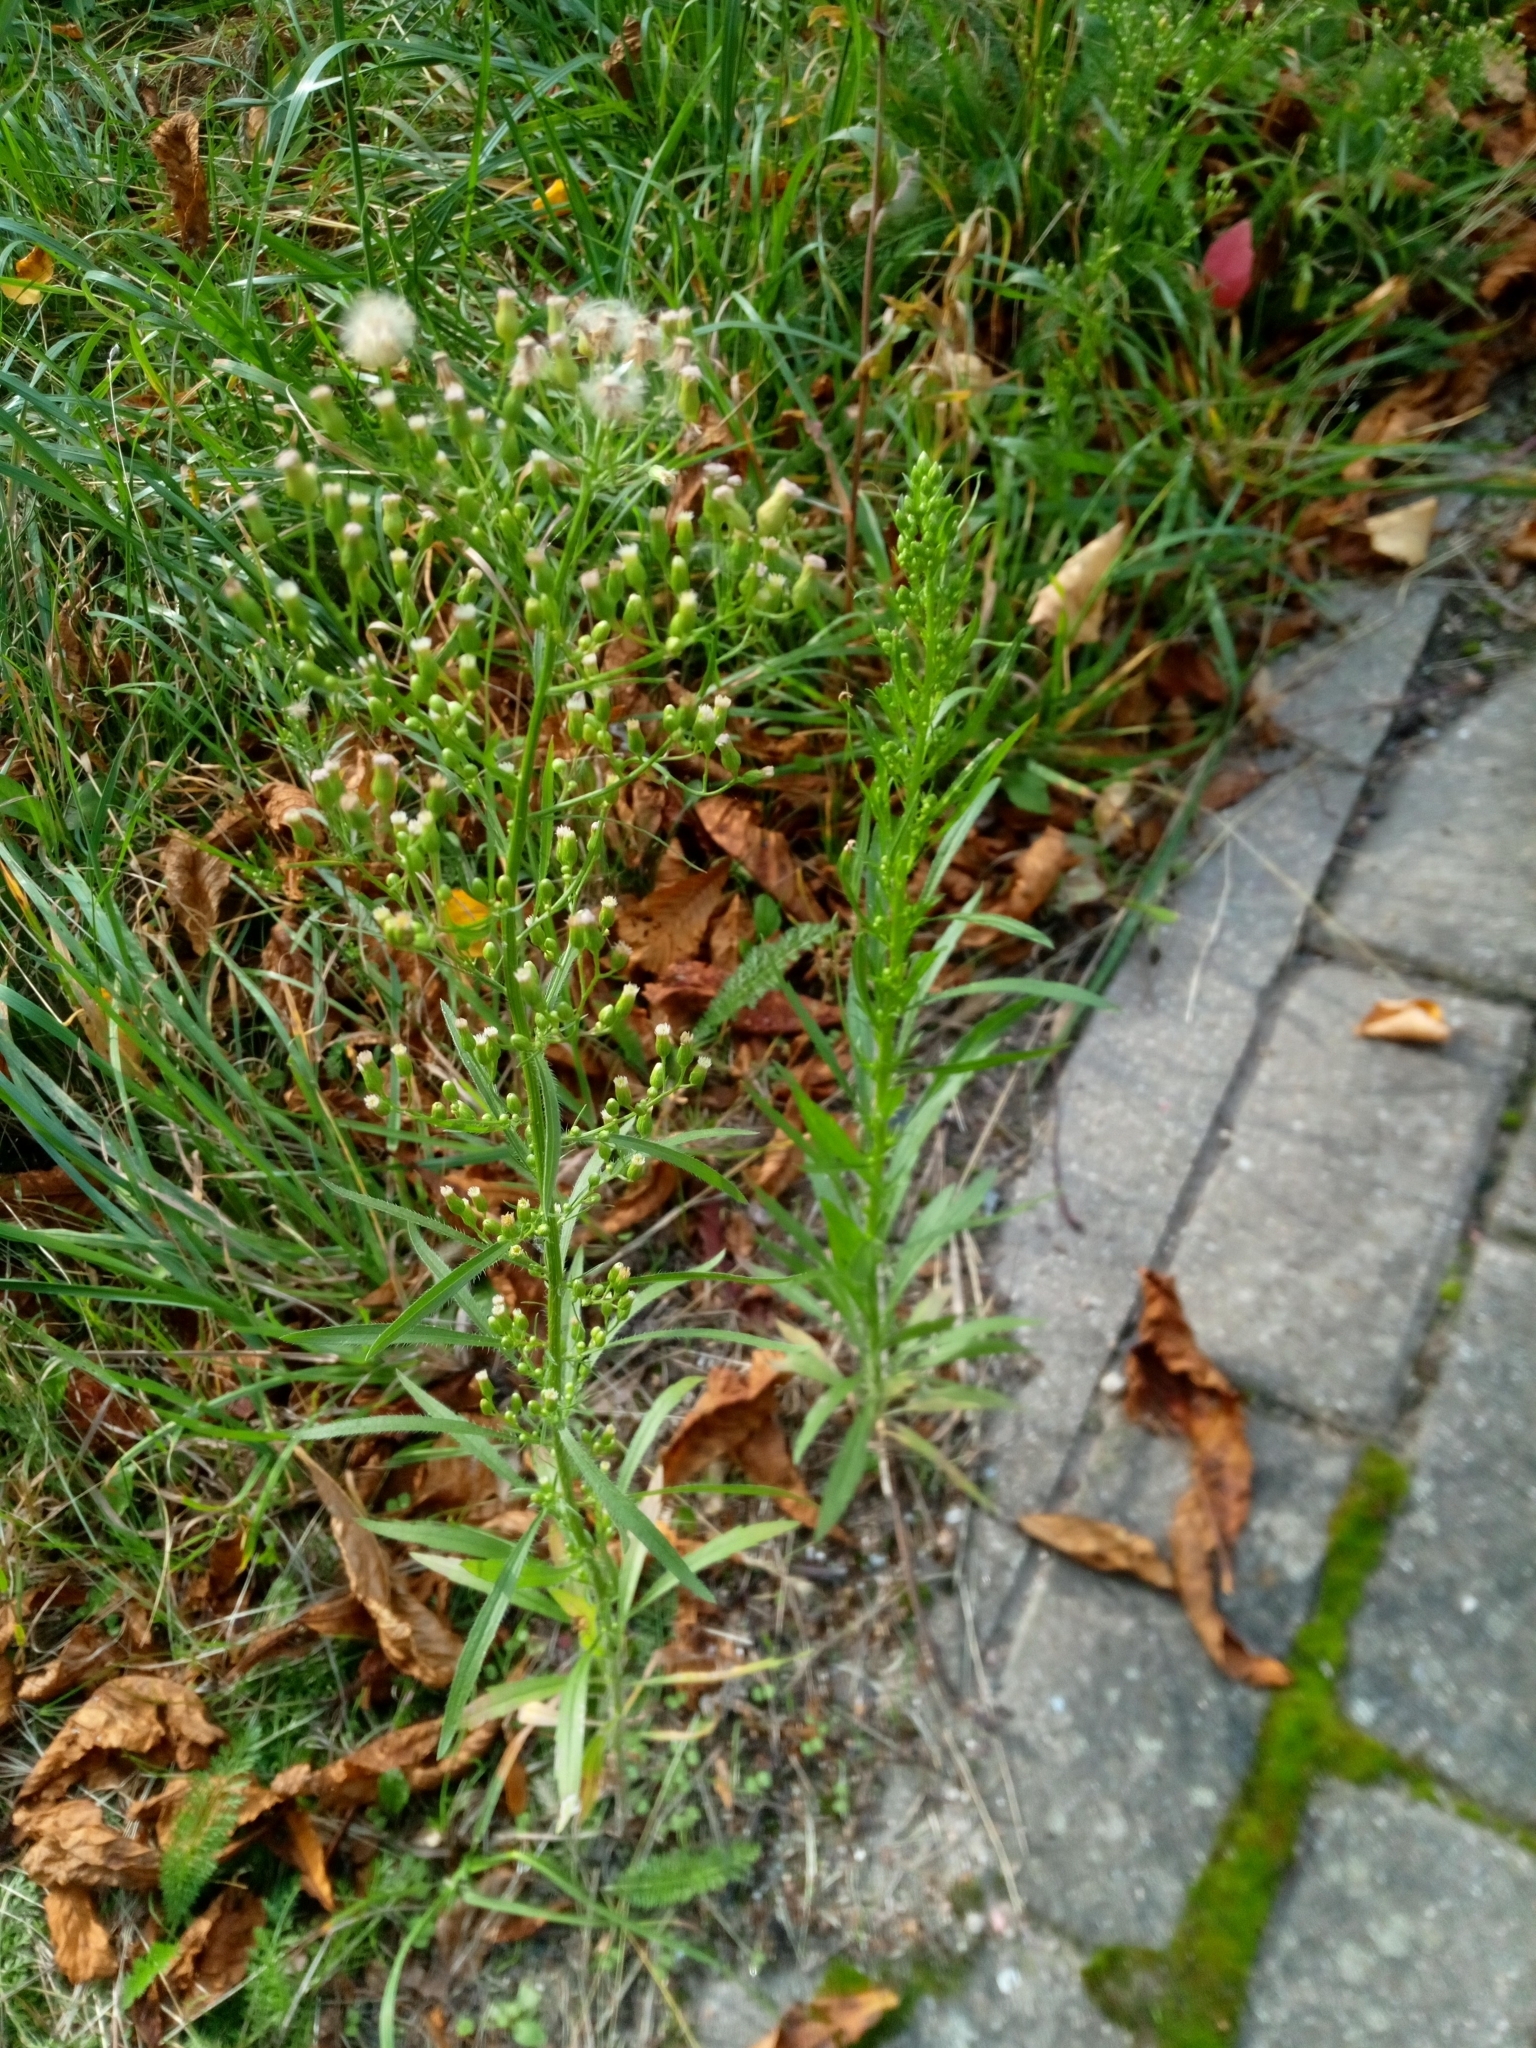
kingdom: Plantae
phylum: Tracheophyta
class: Magnoliopsida
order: Asterales
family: Asteraceae
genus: Erigeron
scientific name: Erigeron canadensis
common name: Canadian fleabane
